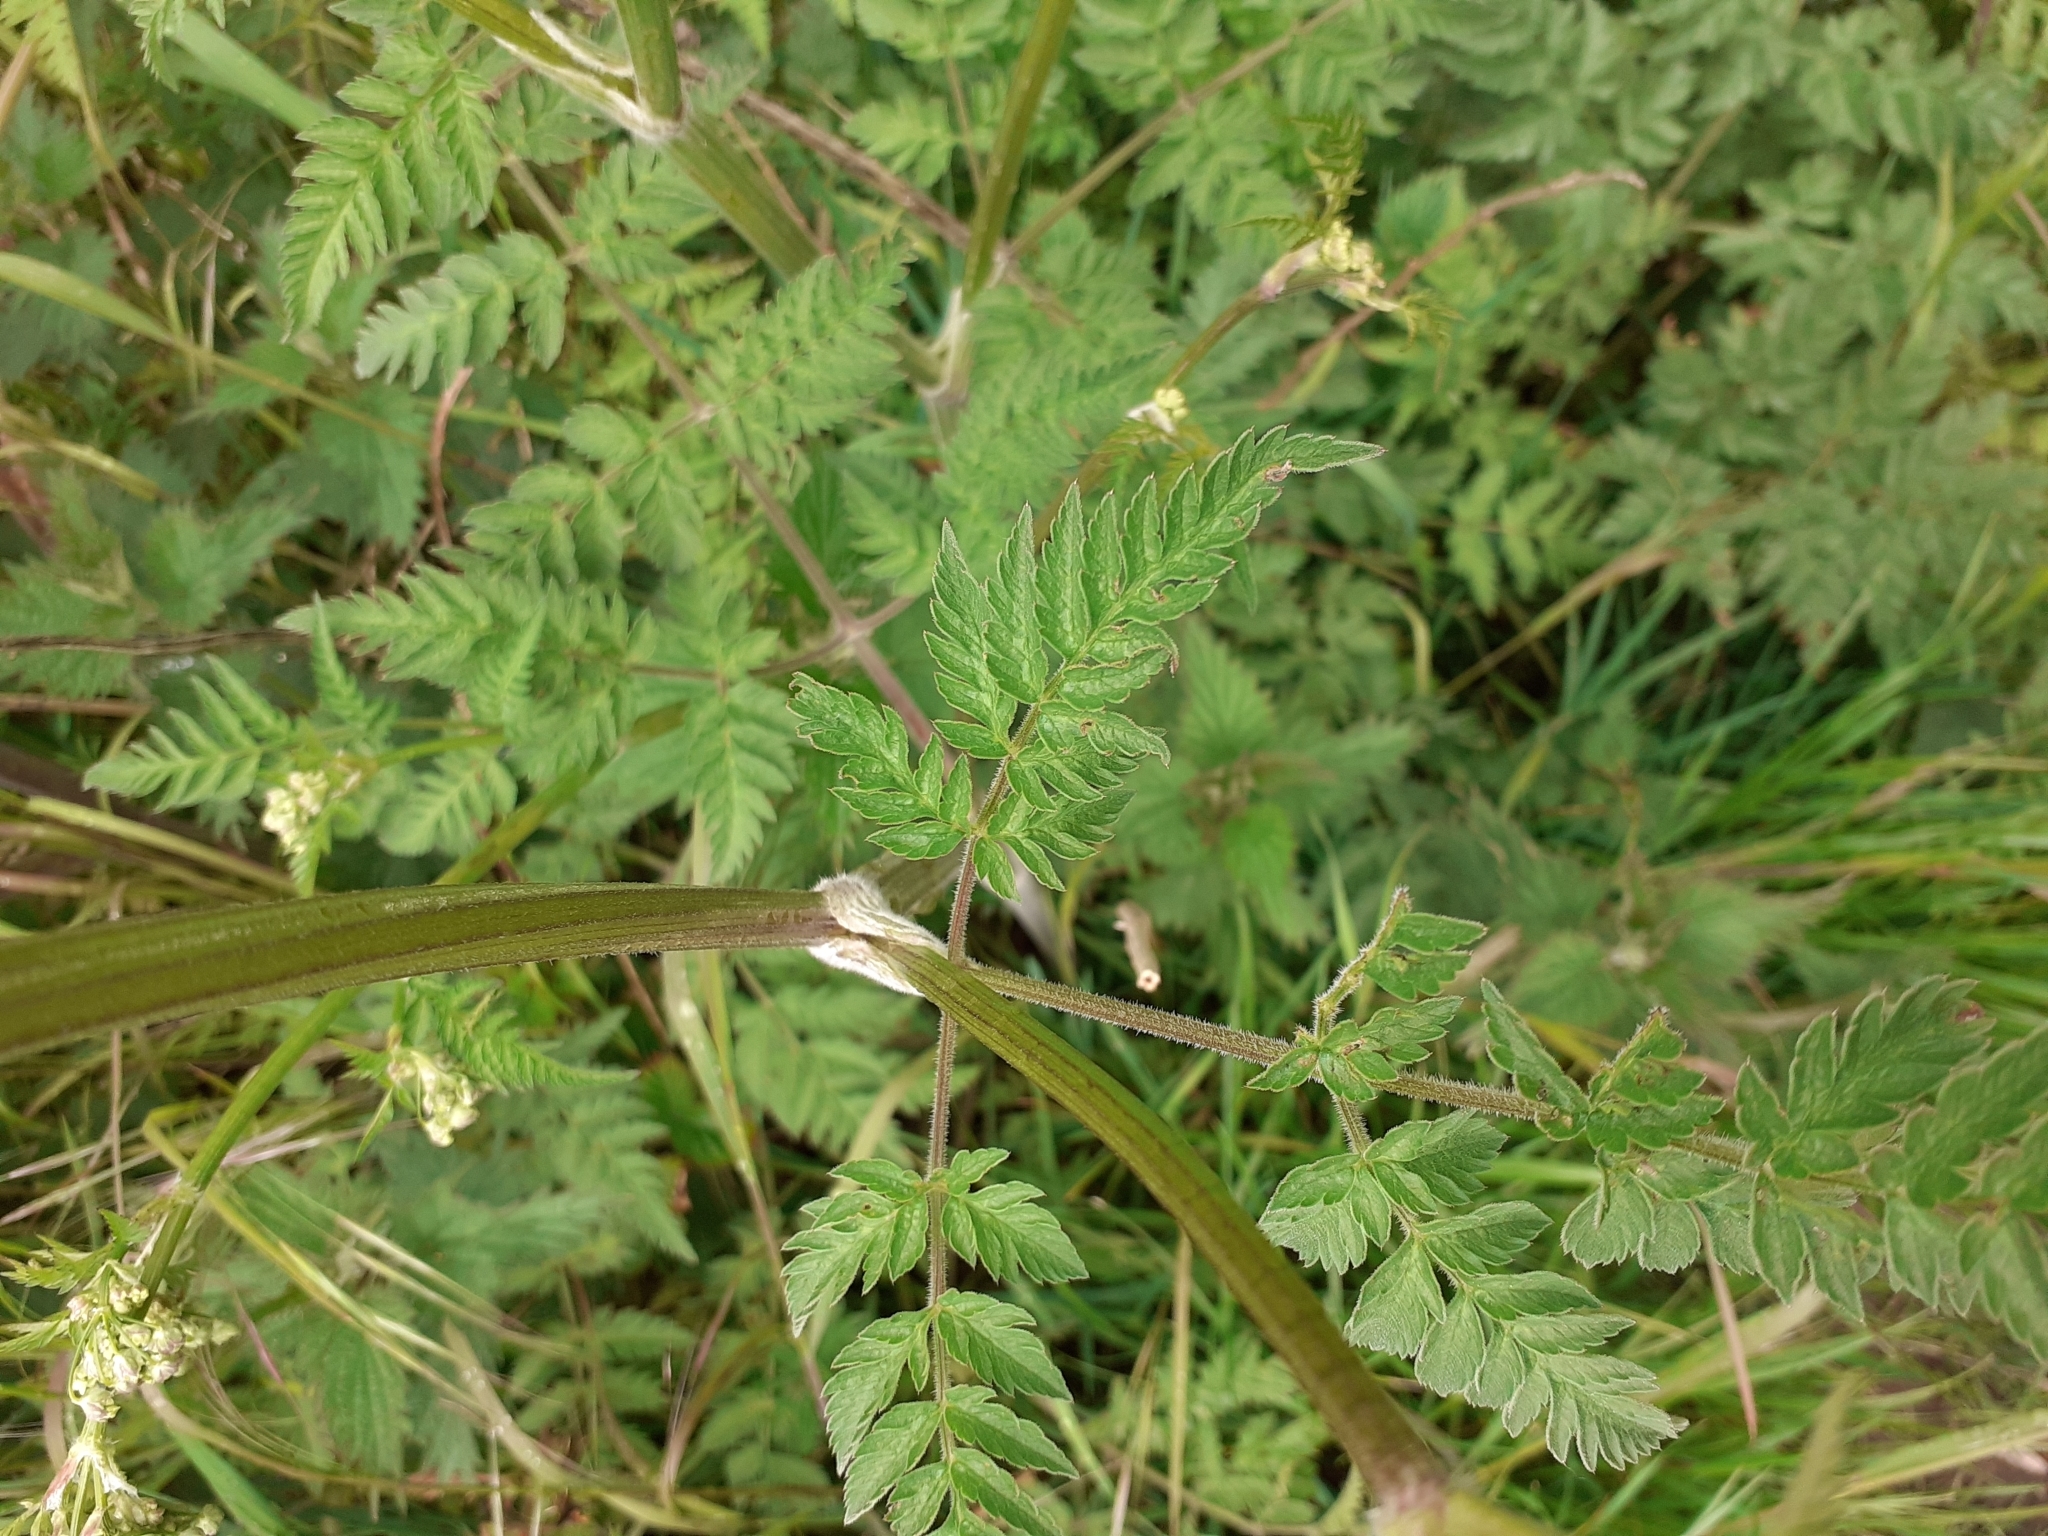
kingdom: Plantae
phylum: Tracheophyta
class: Magnoliopsida
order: Apiales
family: Apiaceae
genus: Anthriscus
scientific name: Anthriscus sylvestris
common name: Cow parsley
